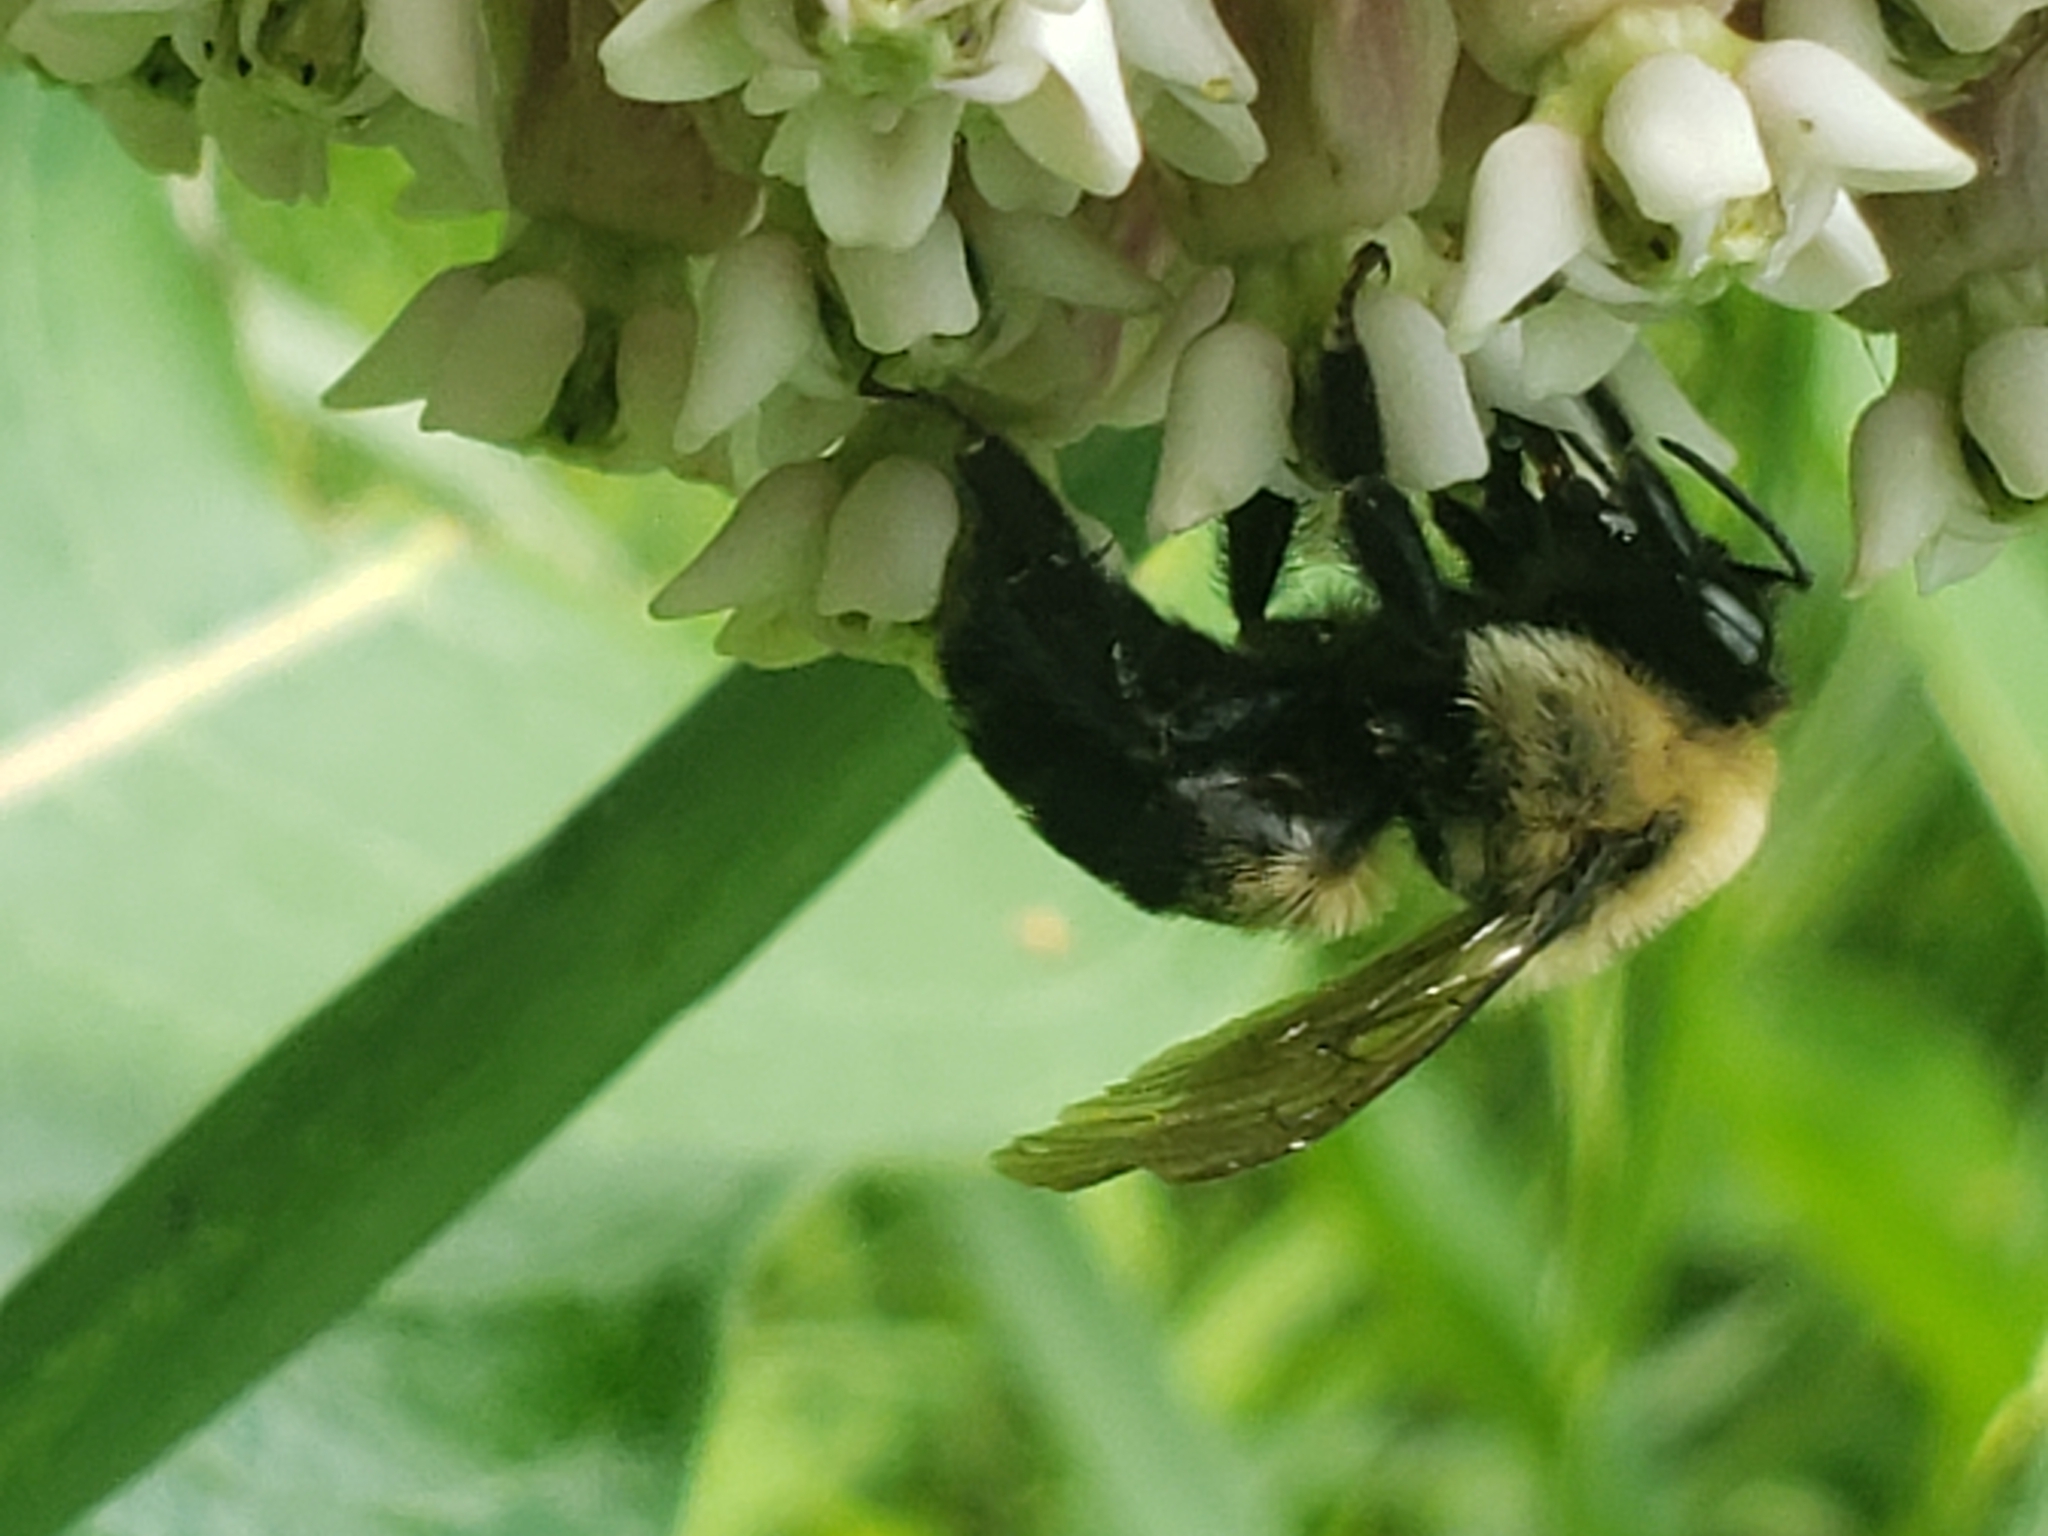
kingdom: Animalia
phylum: Arthropoda
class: Insecta
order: Hymenoptera
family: Apidae
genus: Bombus
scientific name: Bombus griseocollis
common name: Brown-belted bumble bee
